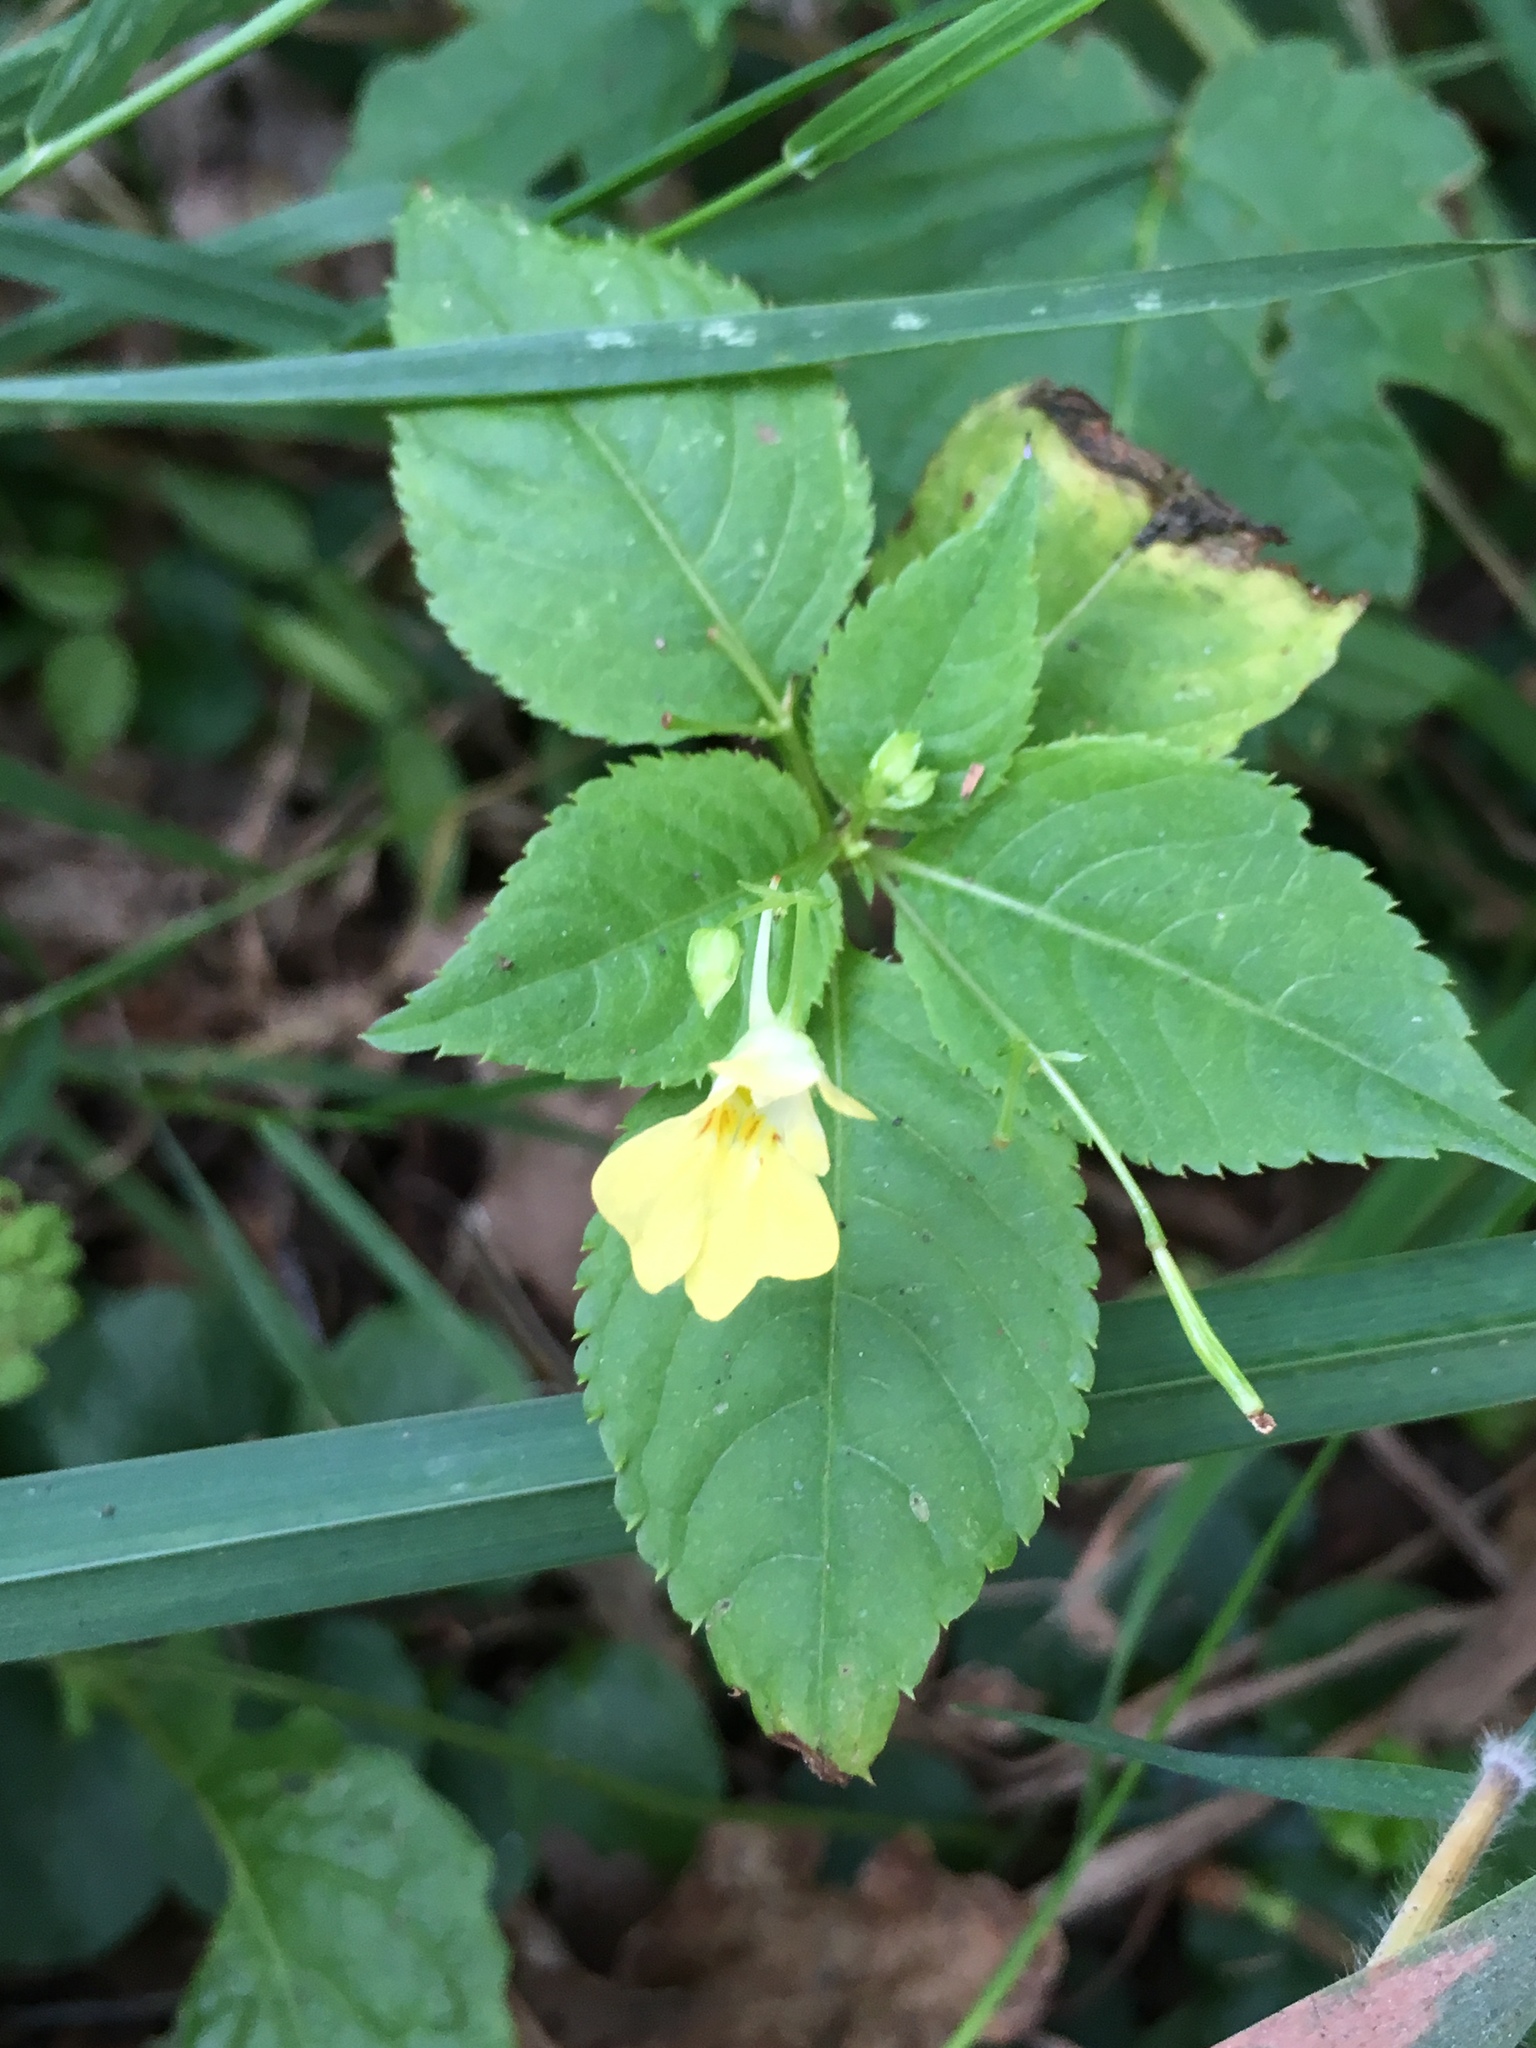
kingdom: Plantae
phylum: Tracheophyta
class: Magnoliopsida
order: Ericales
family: Balsaminaceae
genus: Impatiens
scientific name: Impatiens parviflora
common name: Small balsam
